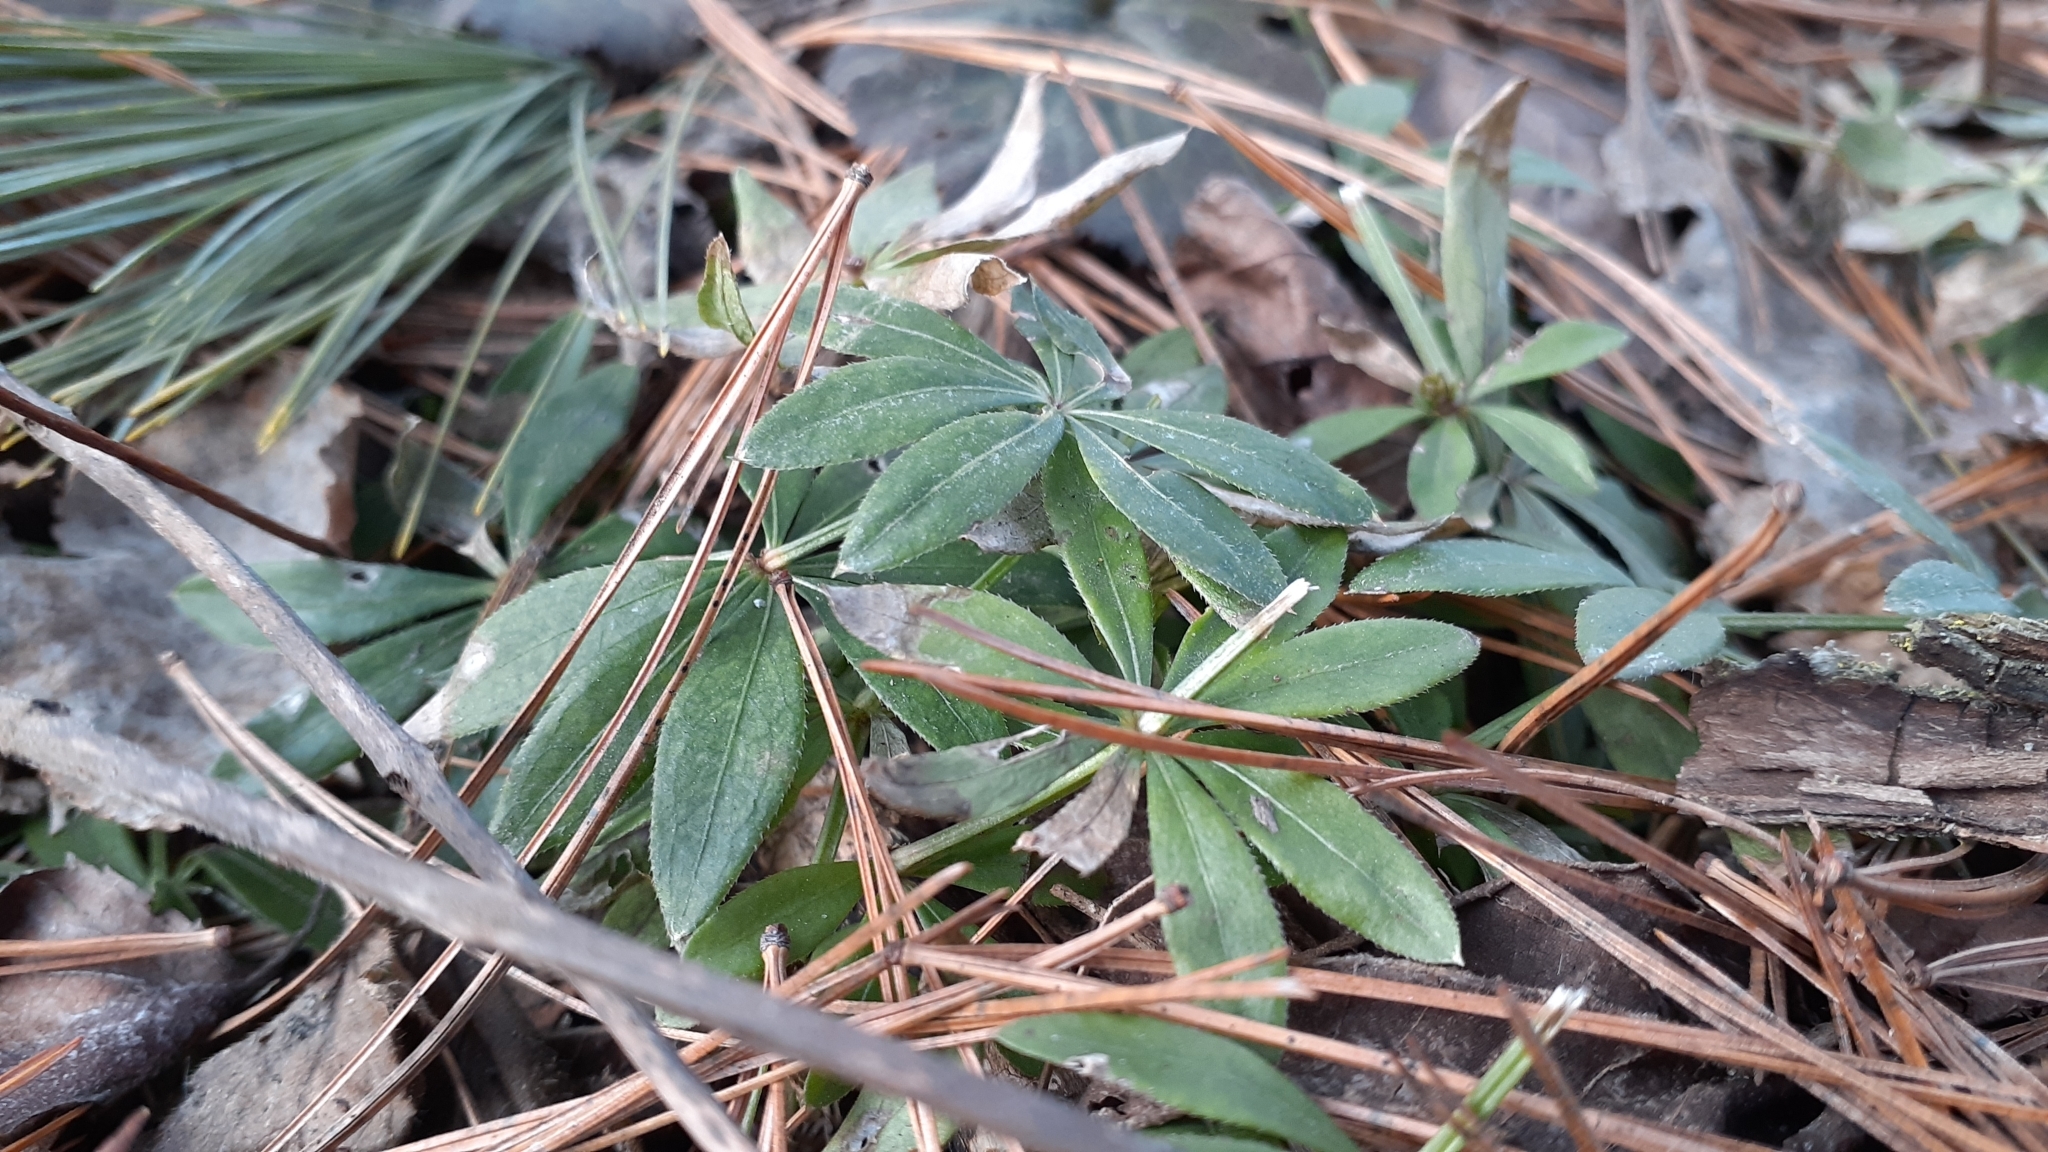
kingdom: Plantae
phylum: Tracheophyta
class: Magnoliopsida
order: Gentianales
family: Rubiaceae
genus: Galium
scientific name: Galium odoratum
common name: Sweet woodruff
